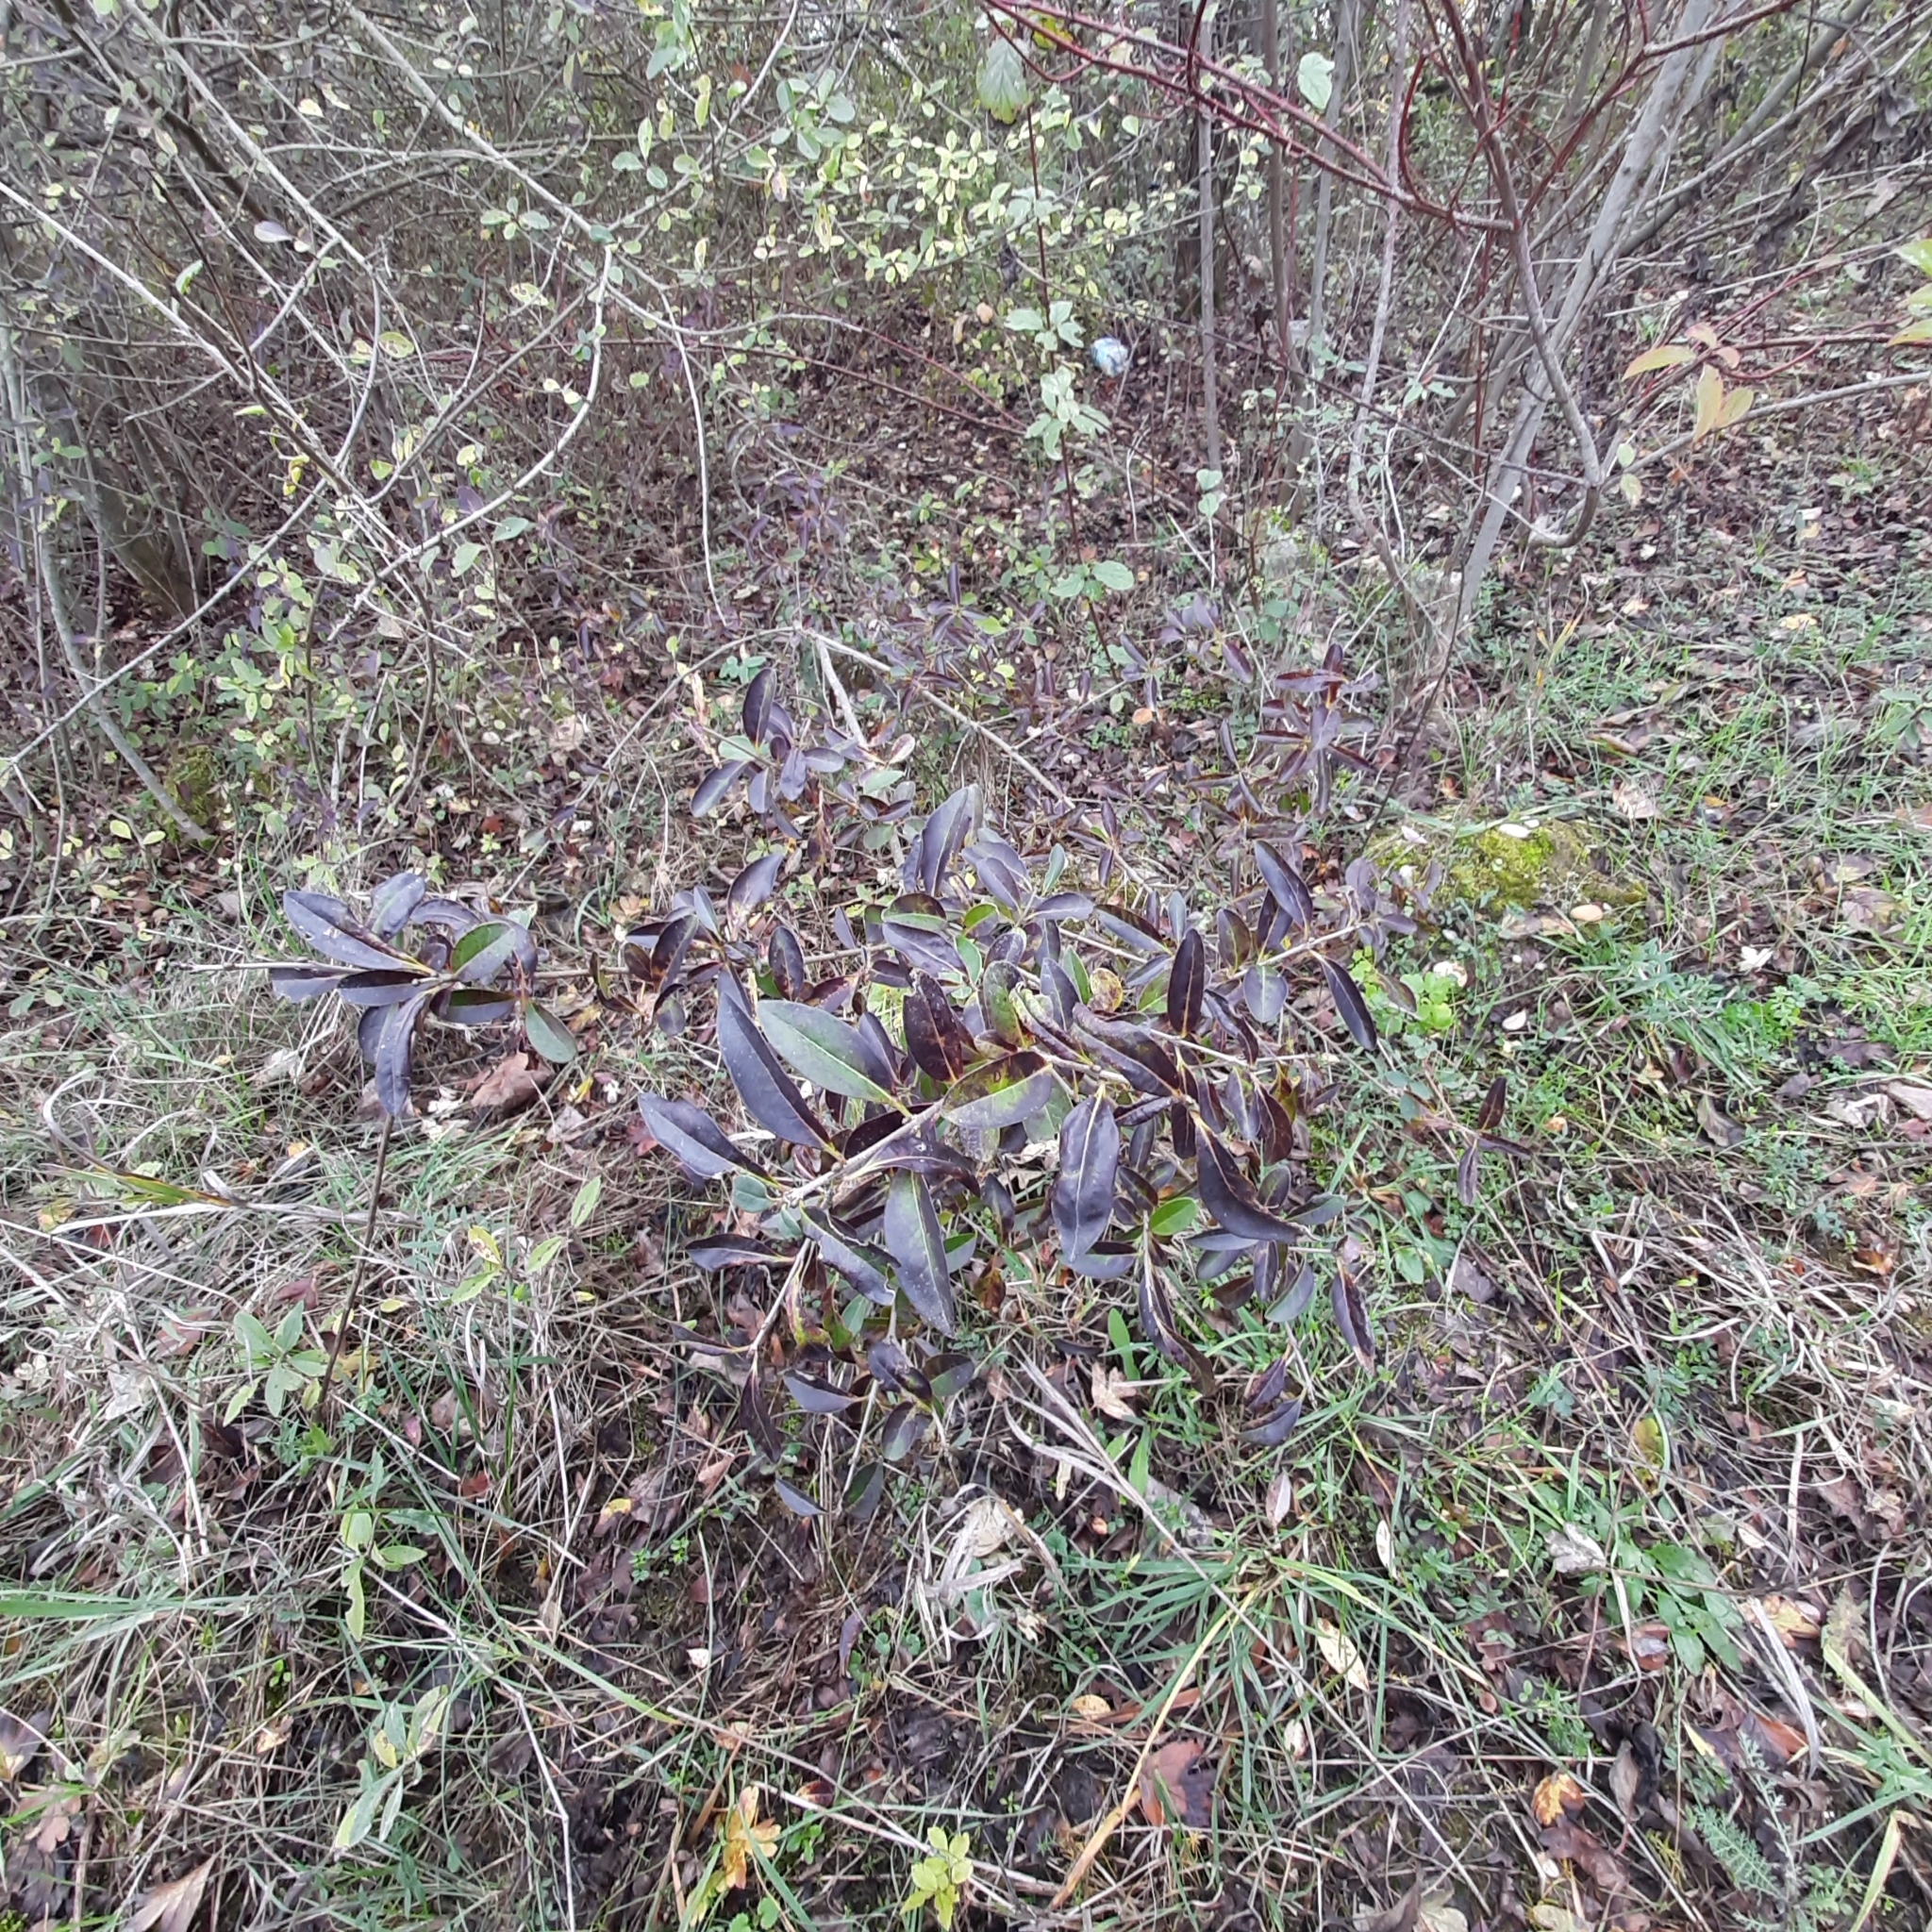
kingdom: Plantae
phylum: Tracheophyta
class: Magnoliopsida
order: Lamiales
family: Oleaceae
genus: Ligustrum
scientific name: Ligustrum vulgare
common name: Wild privet
